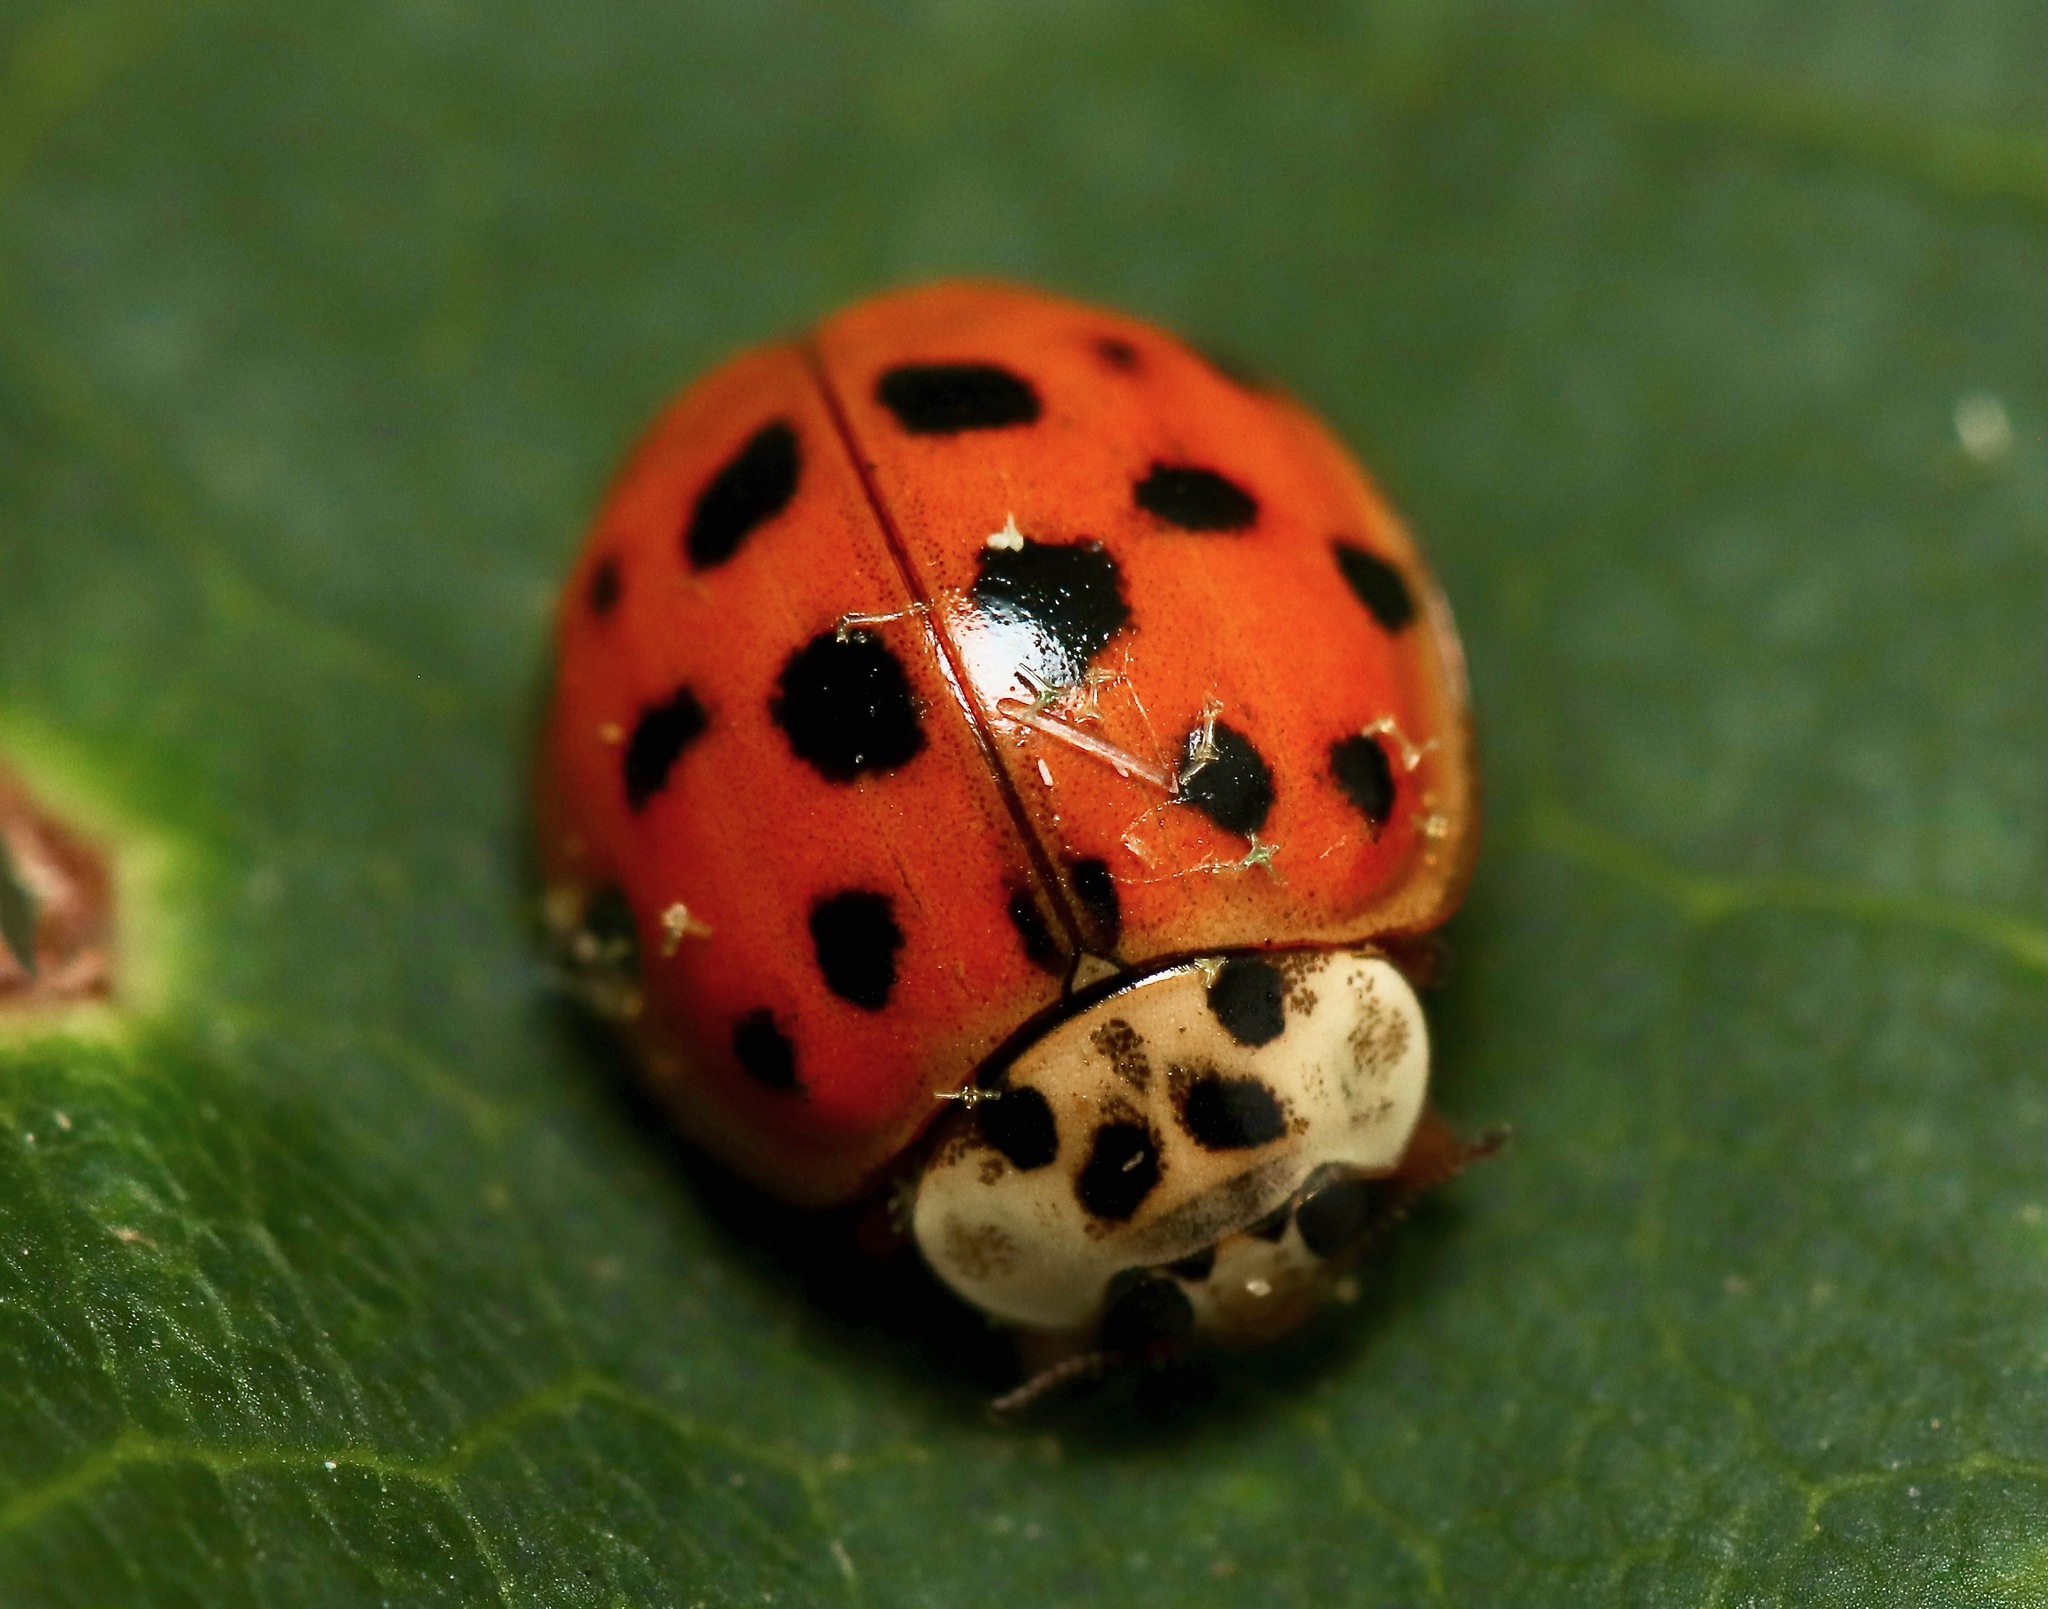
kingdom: Animalia
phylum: Arthropoda
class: Insecta
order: Coleoptera
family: Coccinellidae
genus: Harmonia
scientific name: Harmonia axyridis
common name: Harlequin ladybird
